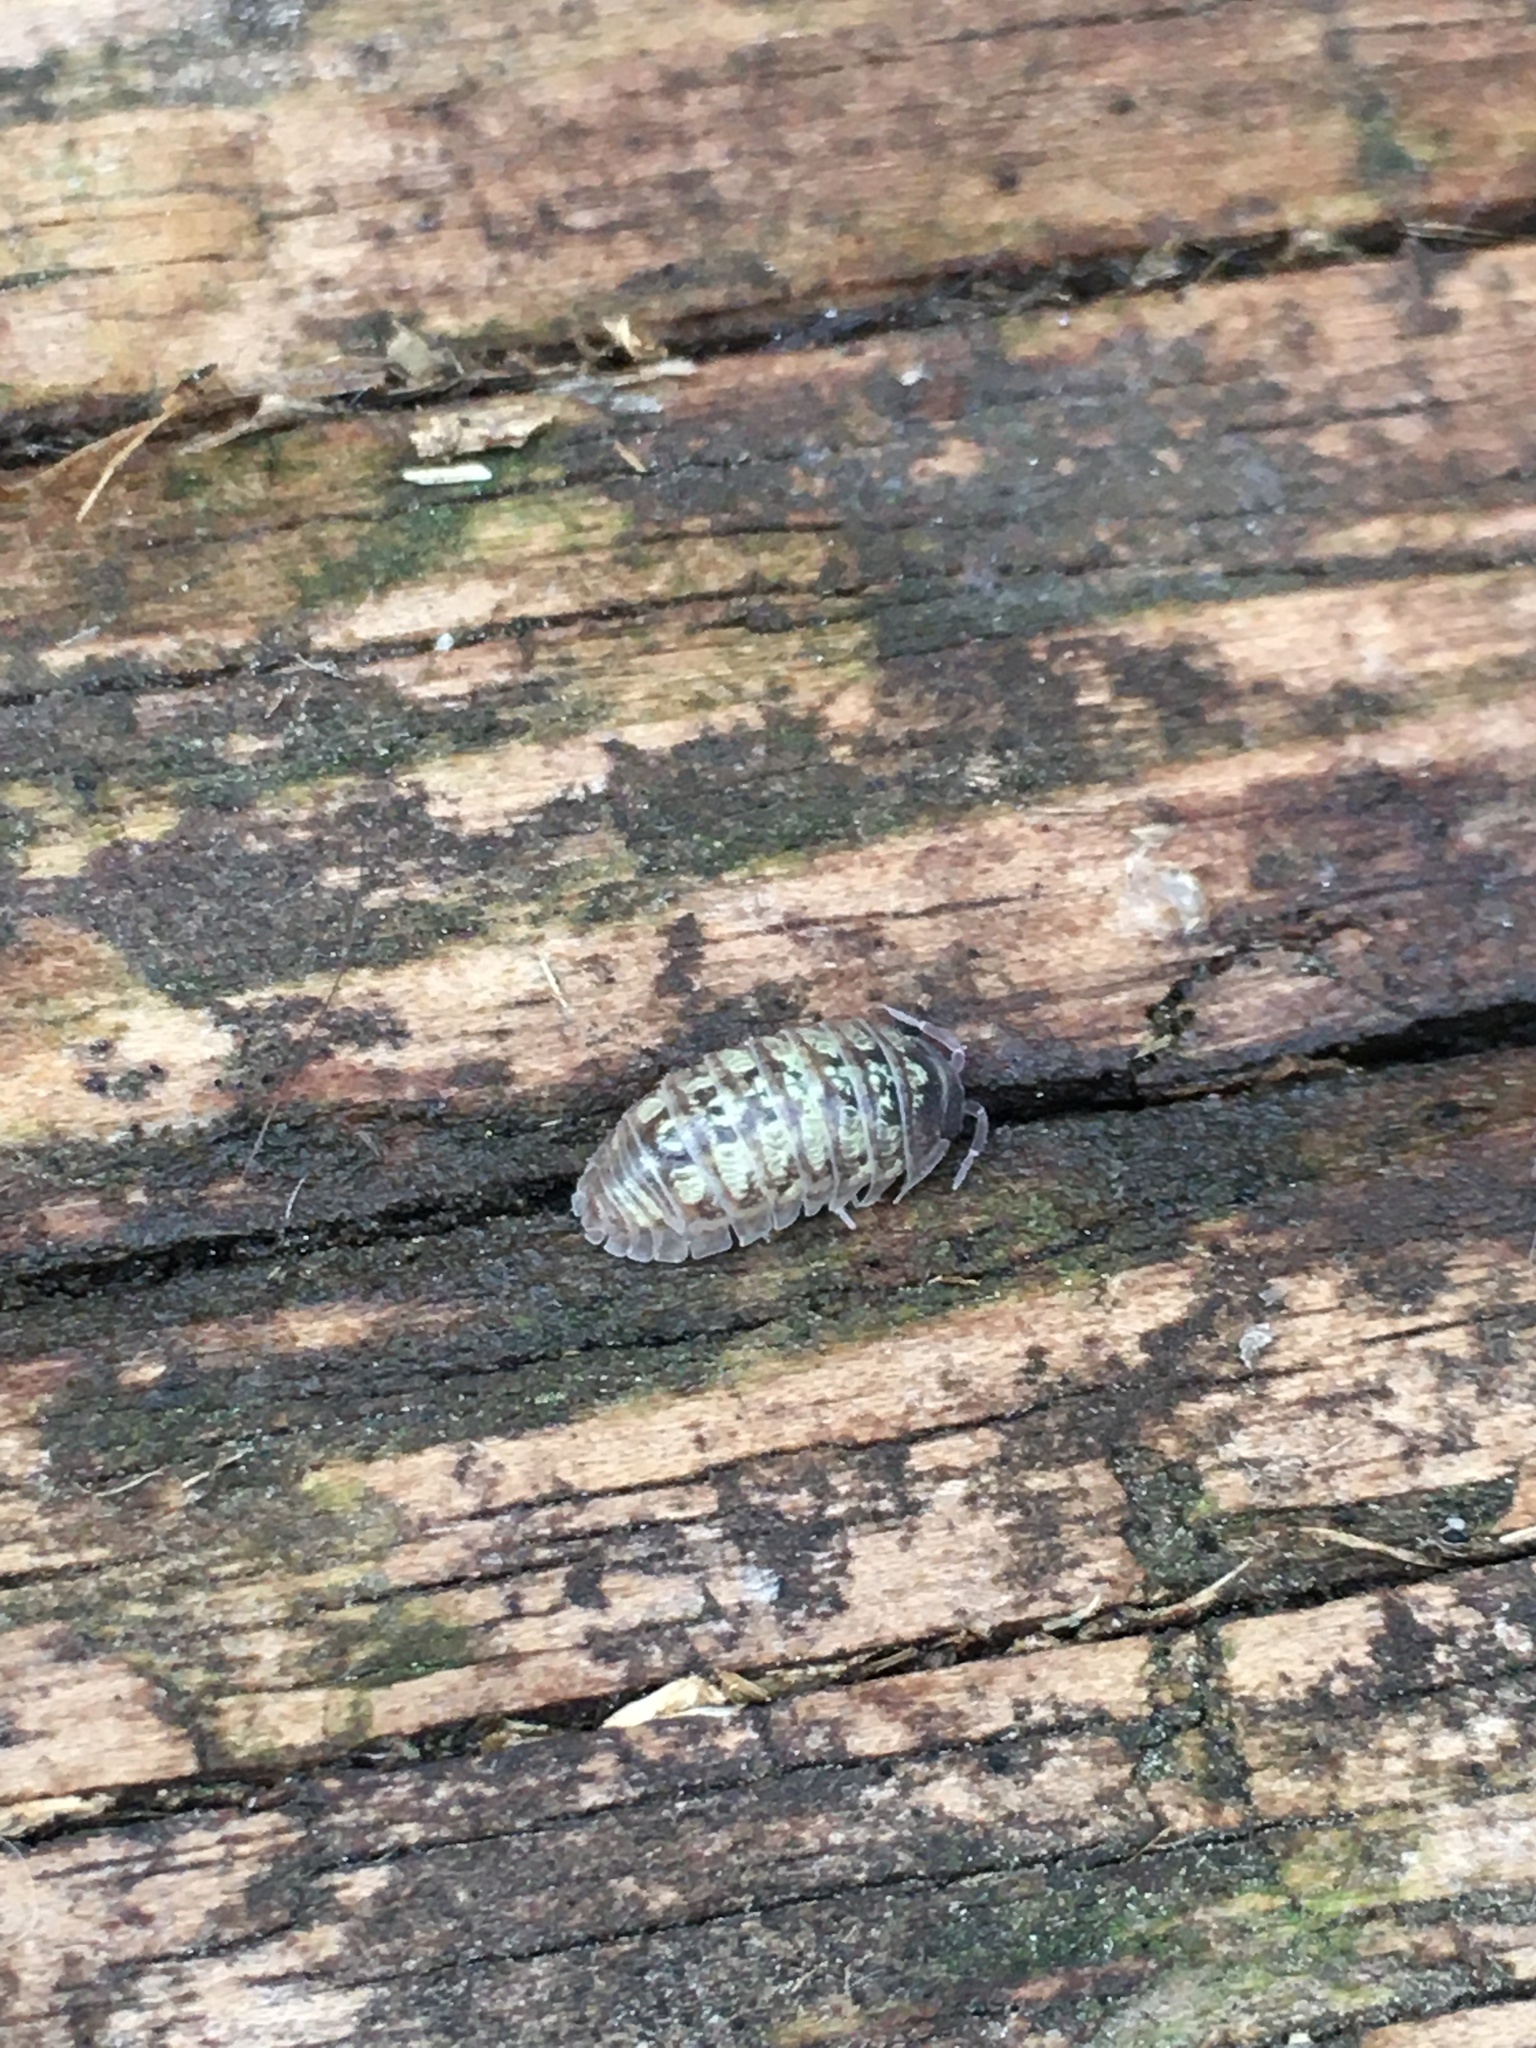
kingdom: Animalia
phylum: Arthropoda
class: Malacostraca
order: Isopoda
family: Armadillidiidae
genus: Armadillidium
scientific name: Armadillidium vulgare
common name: Common pill woodlouse
